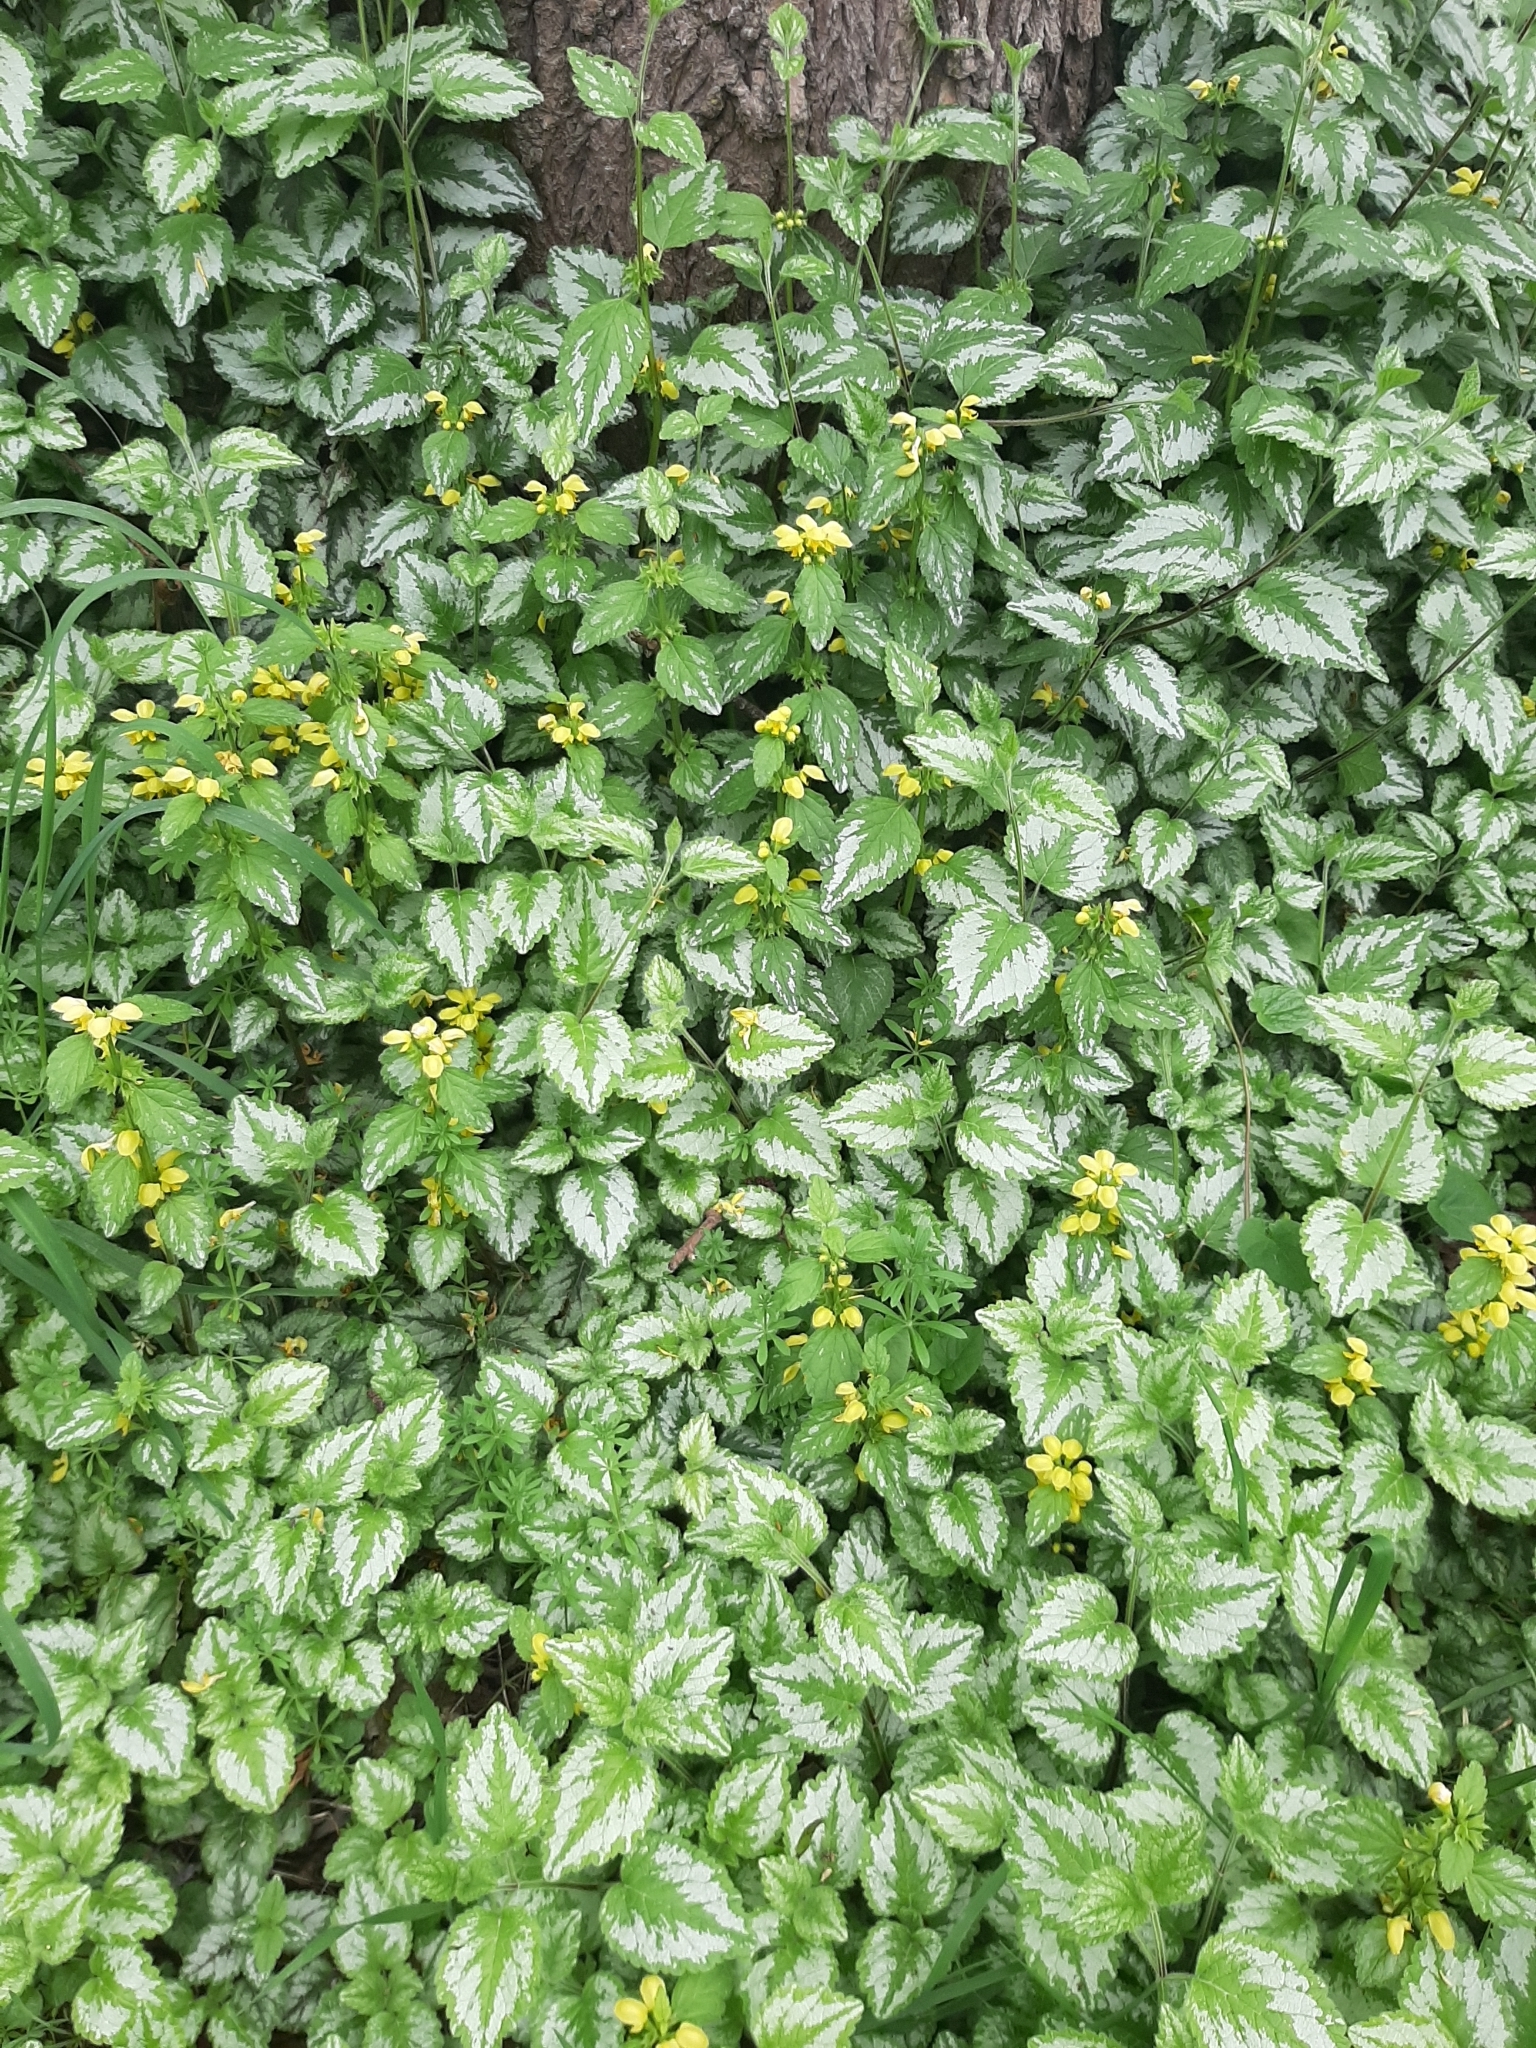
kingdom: Plantae
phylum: Tracheophyta
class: Magnoliopsida
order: Lamiales
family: Lamiaceae
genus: Lamium
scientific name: Lamium galeobdolon
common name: Yellow archangel
